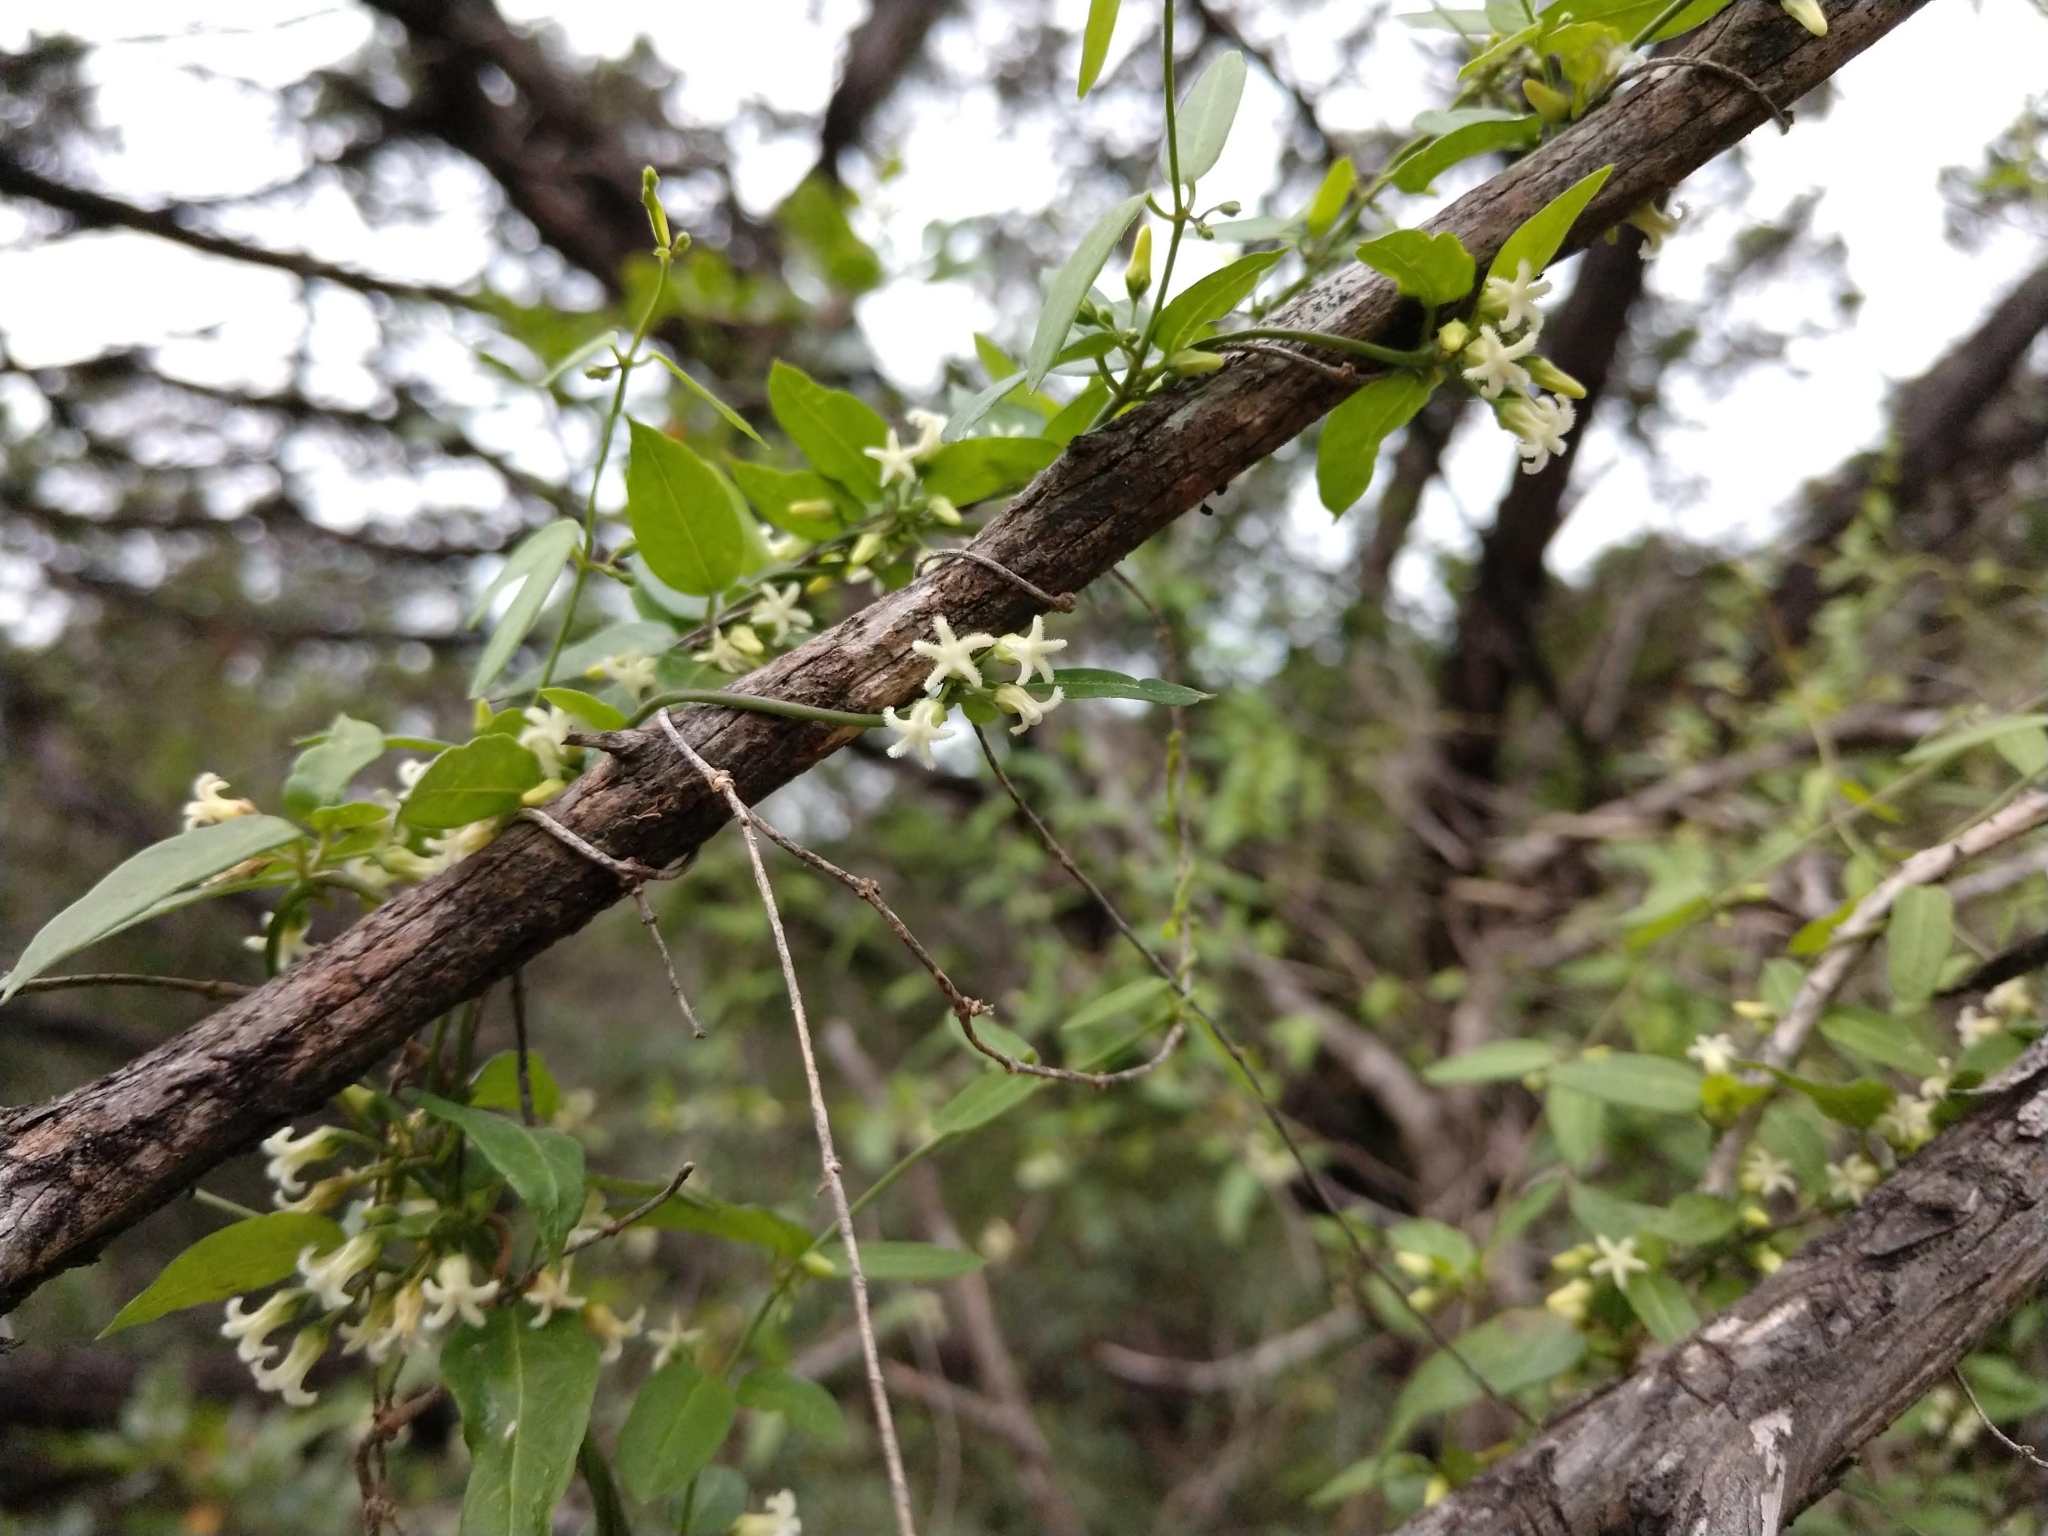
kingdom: Plantae
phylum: Tracheophyta
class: Magnoliopsida
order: Gentianales
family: Apocynaceae
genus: Metastelma
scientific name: Metastelma barbigerum
